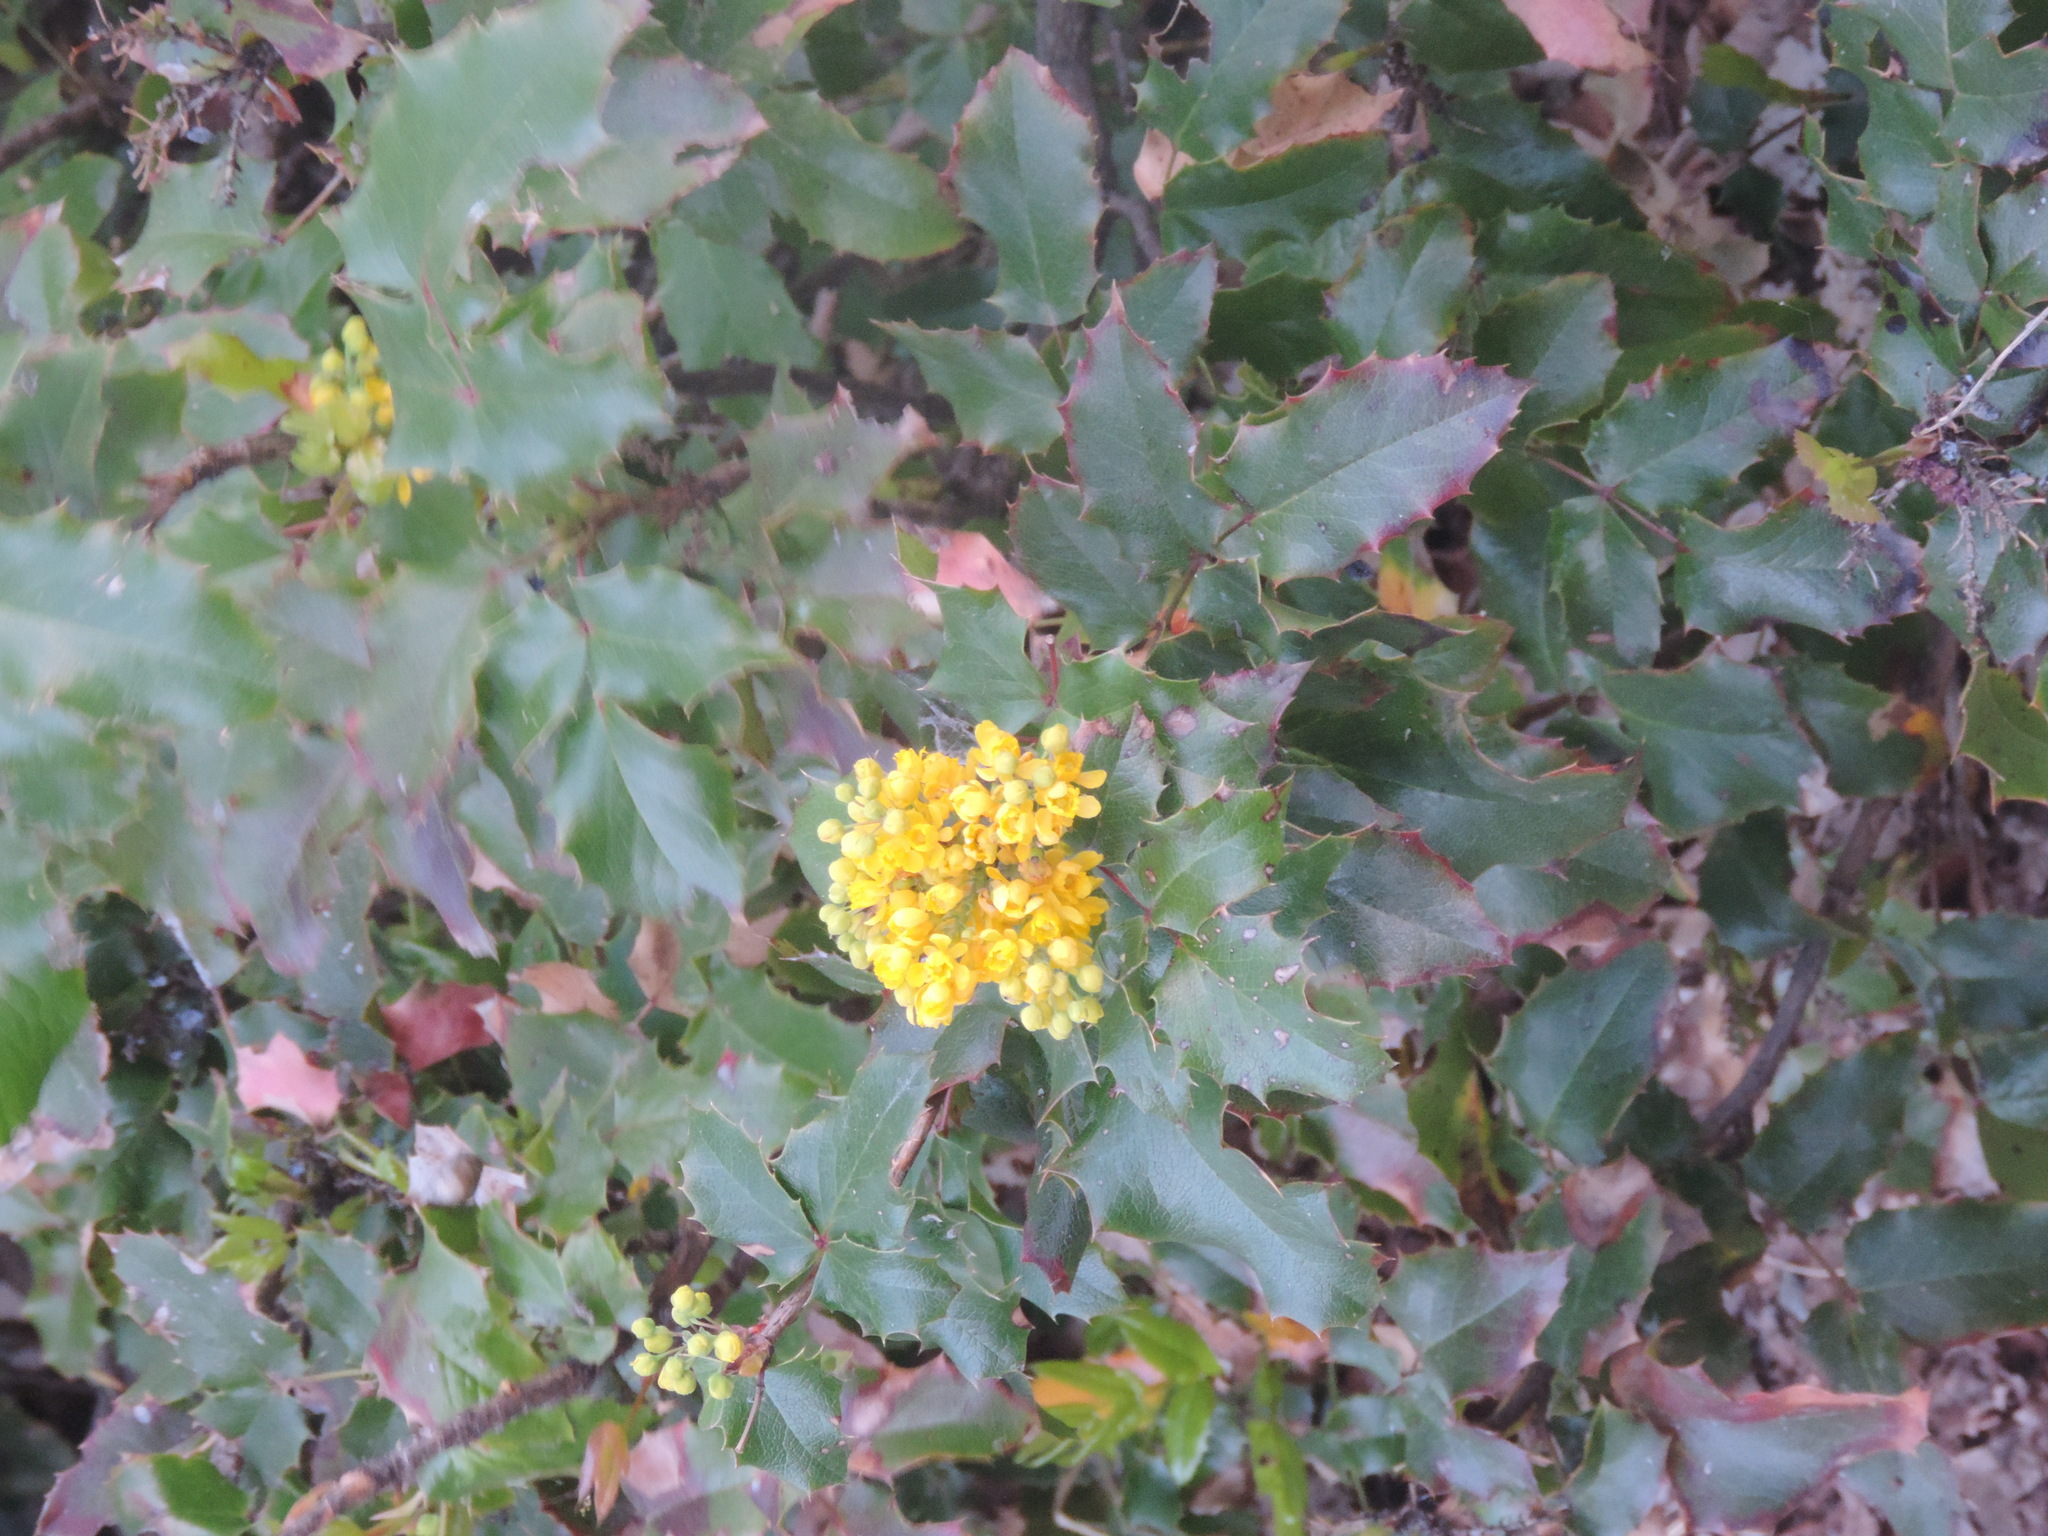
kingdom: Plantae
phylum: Tracheophyta
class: Magnoliopsida
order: Ranunculales
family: Berberidaceae
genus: Mahonia
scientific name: Mahonia aquifolium
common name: Oregon-grape
